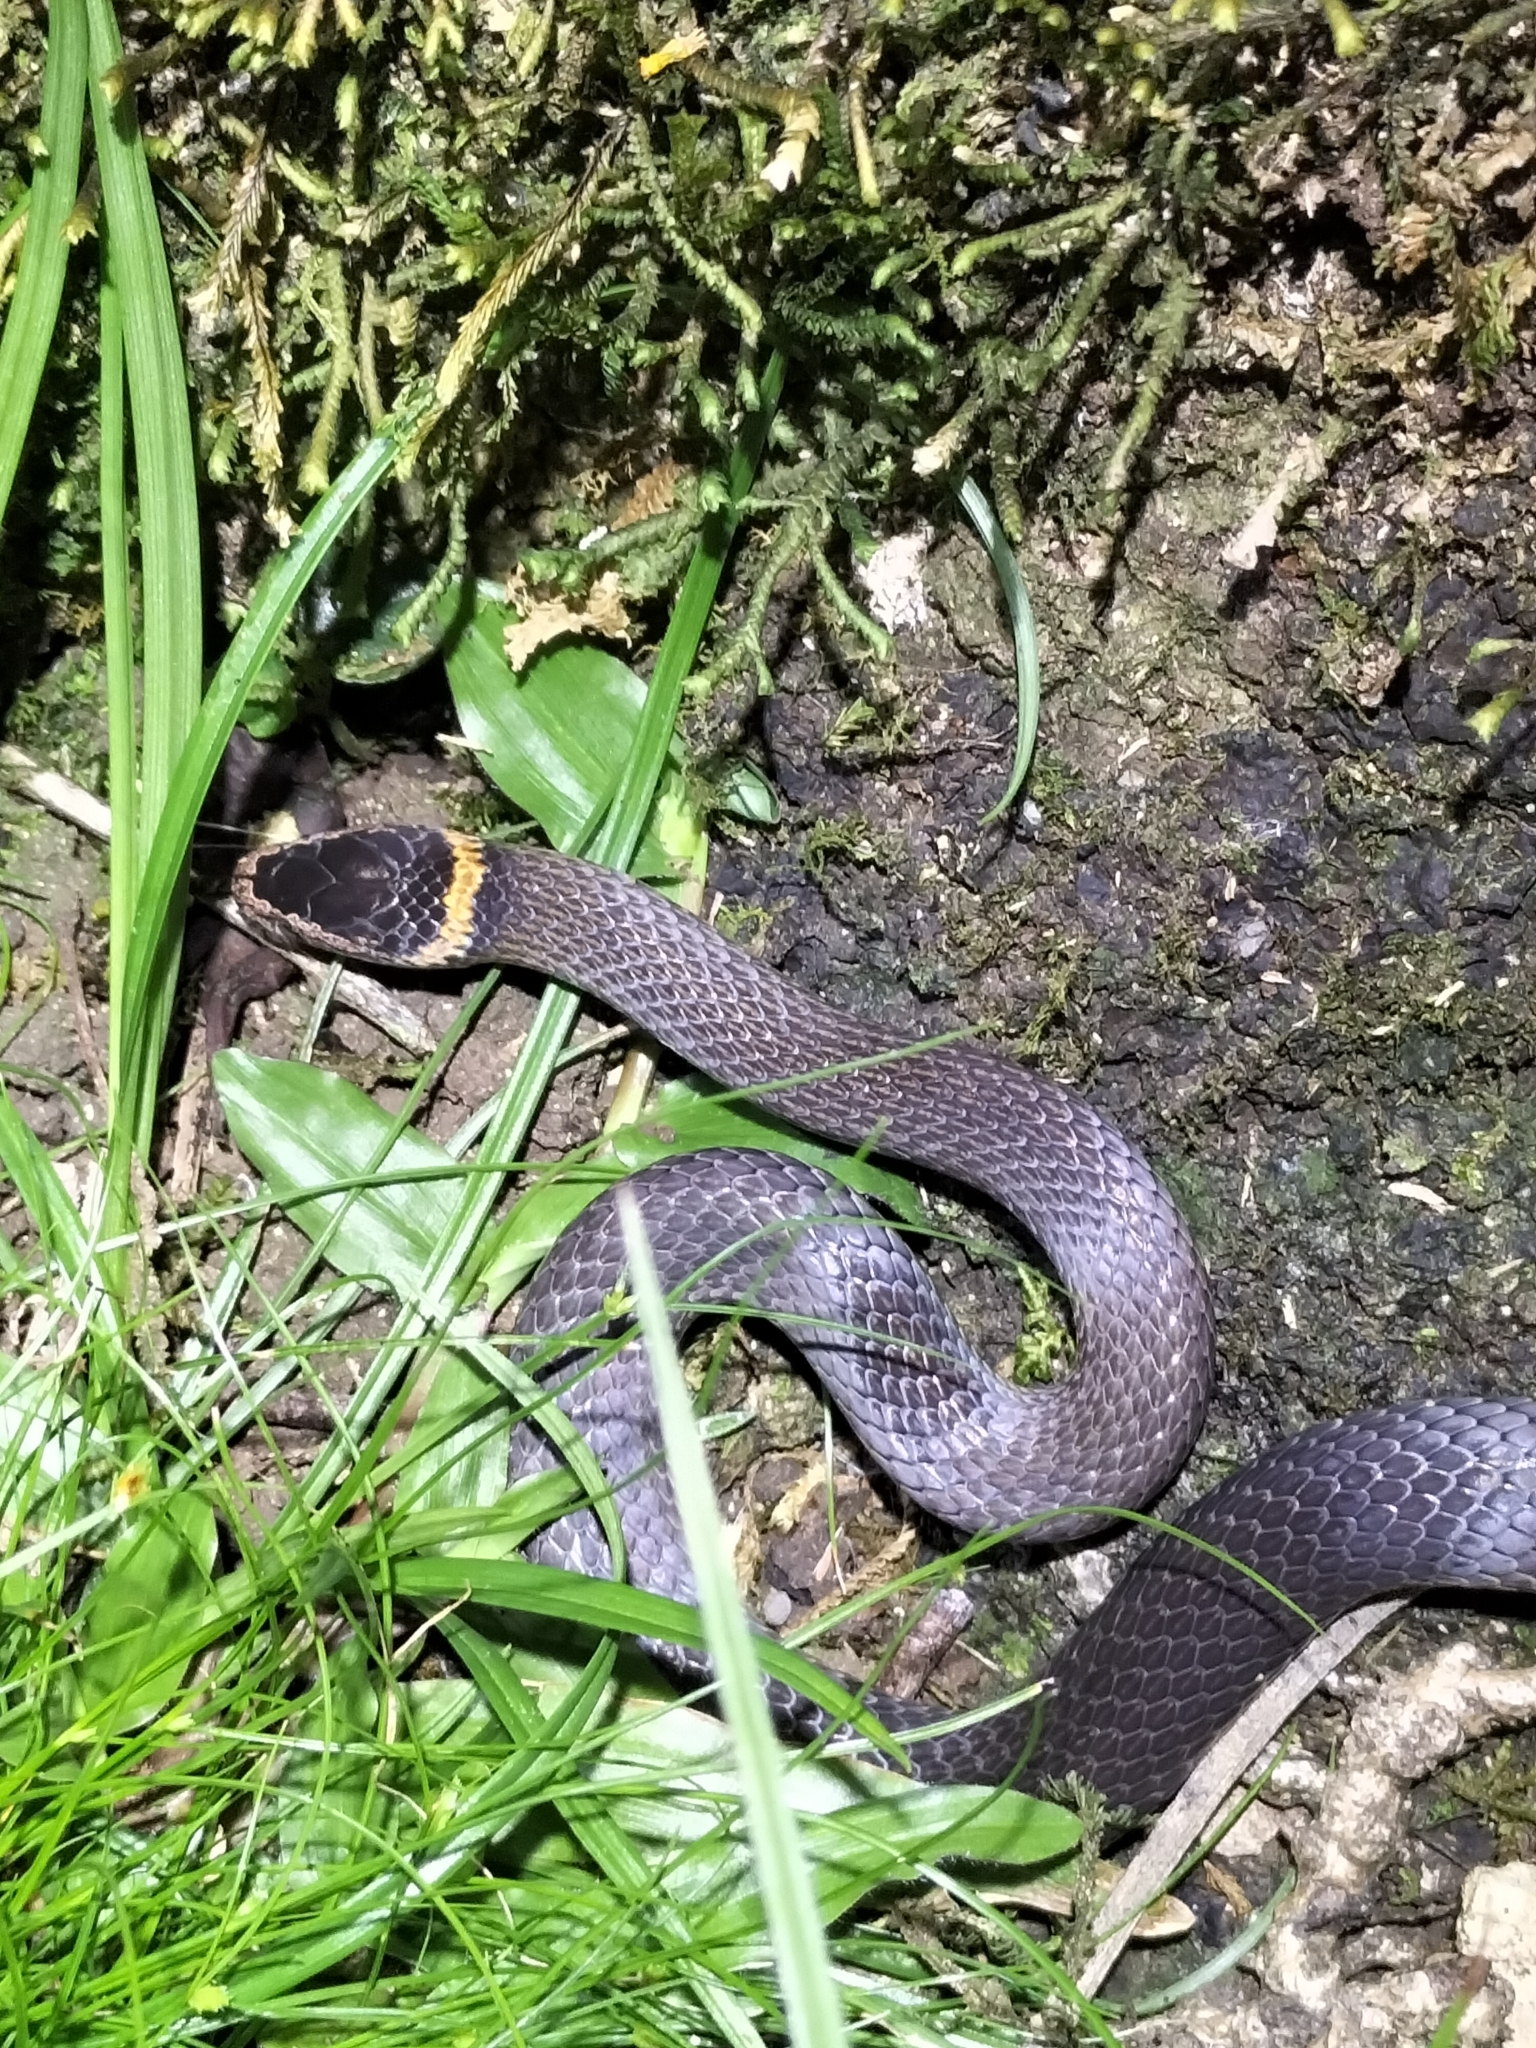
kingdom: Animalia
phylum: Chordata
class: Squamata
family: Elapidae
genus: Cacophis
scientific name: Cacophis churchilli
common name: Northern dward-crowned snake
